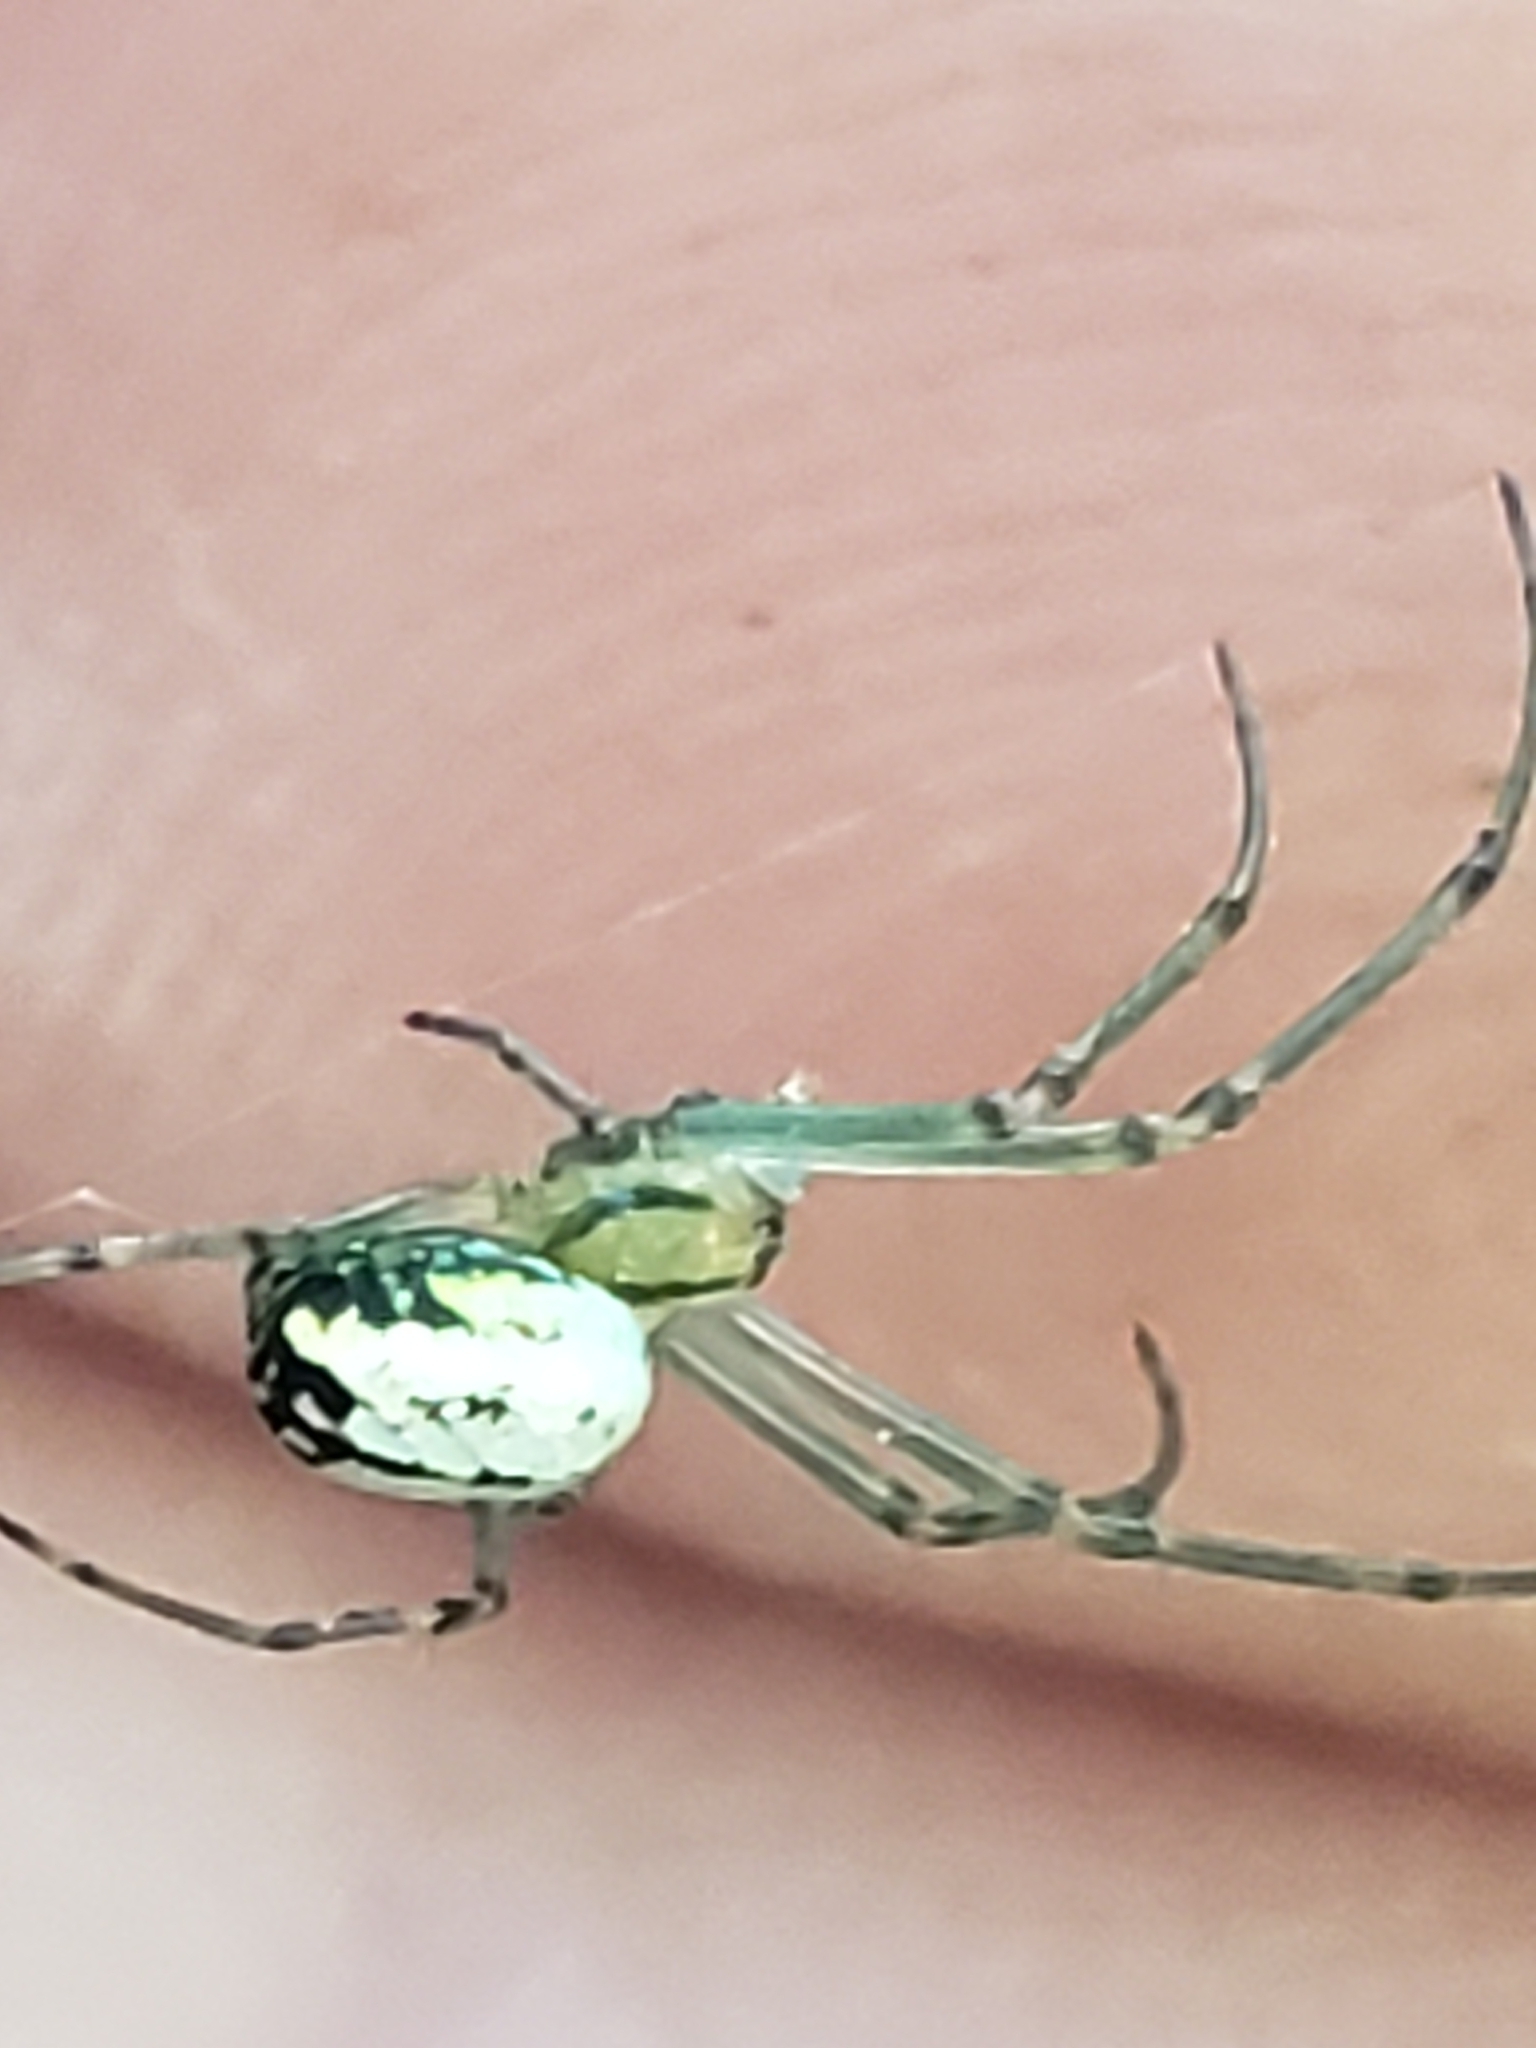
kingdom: Animalia
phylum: Arthropoda
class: Arachnida
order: Araneae
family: Tetragnathidae
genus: Leucauge
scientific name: Leucauge venusta
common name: Longjawed orb weavers
